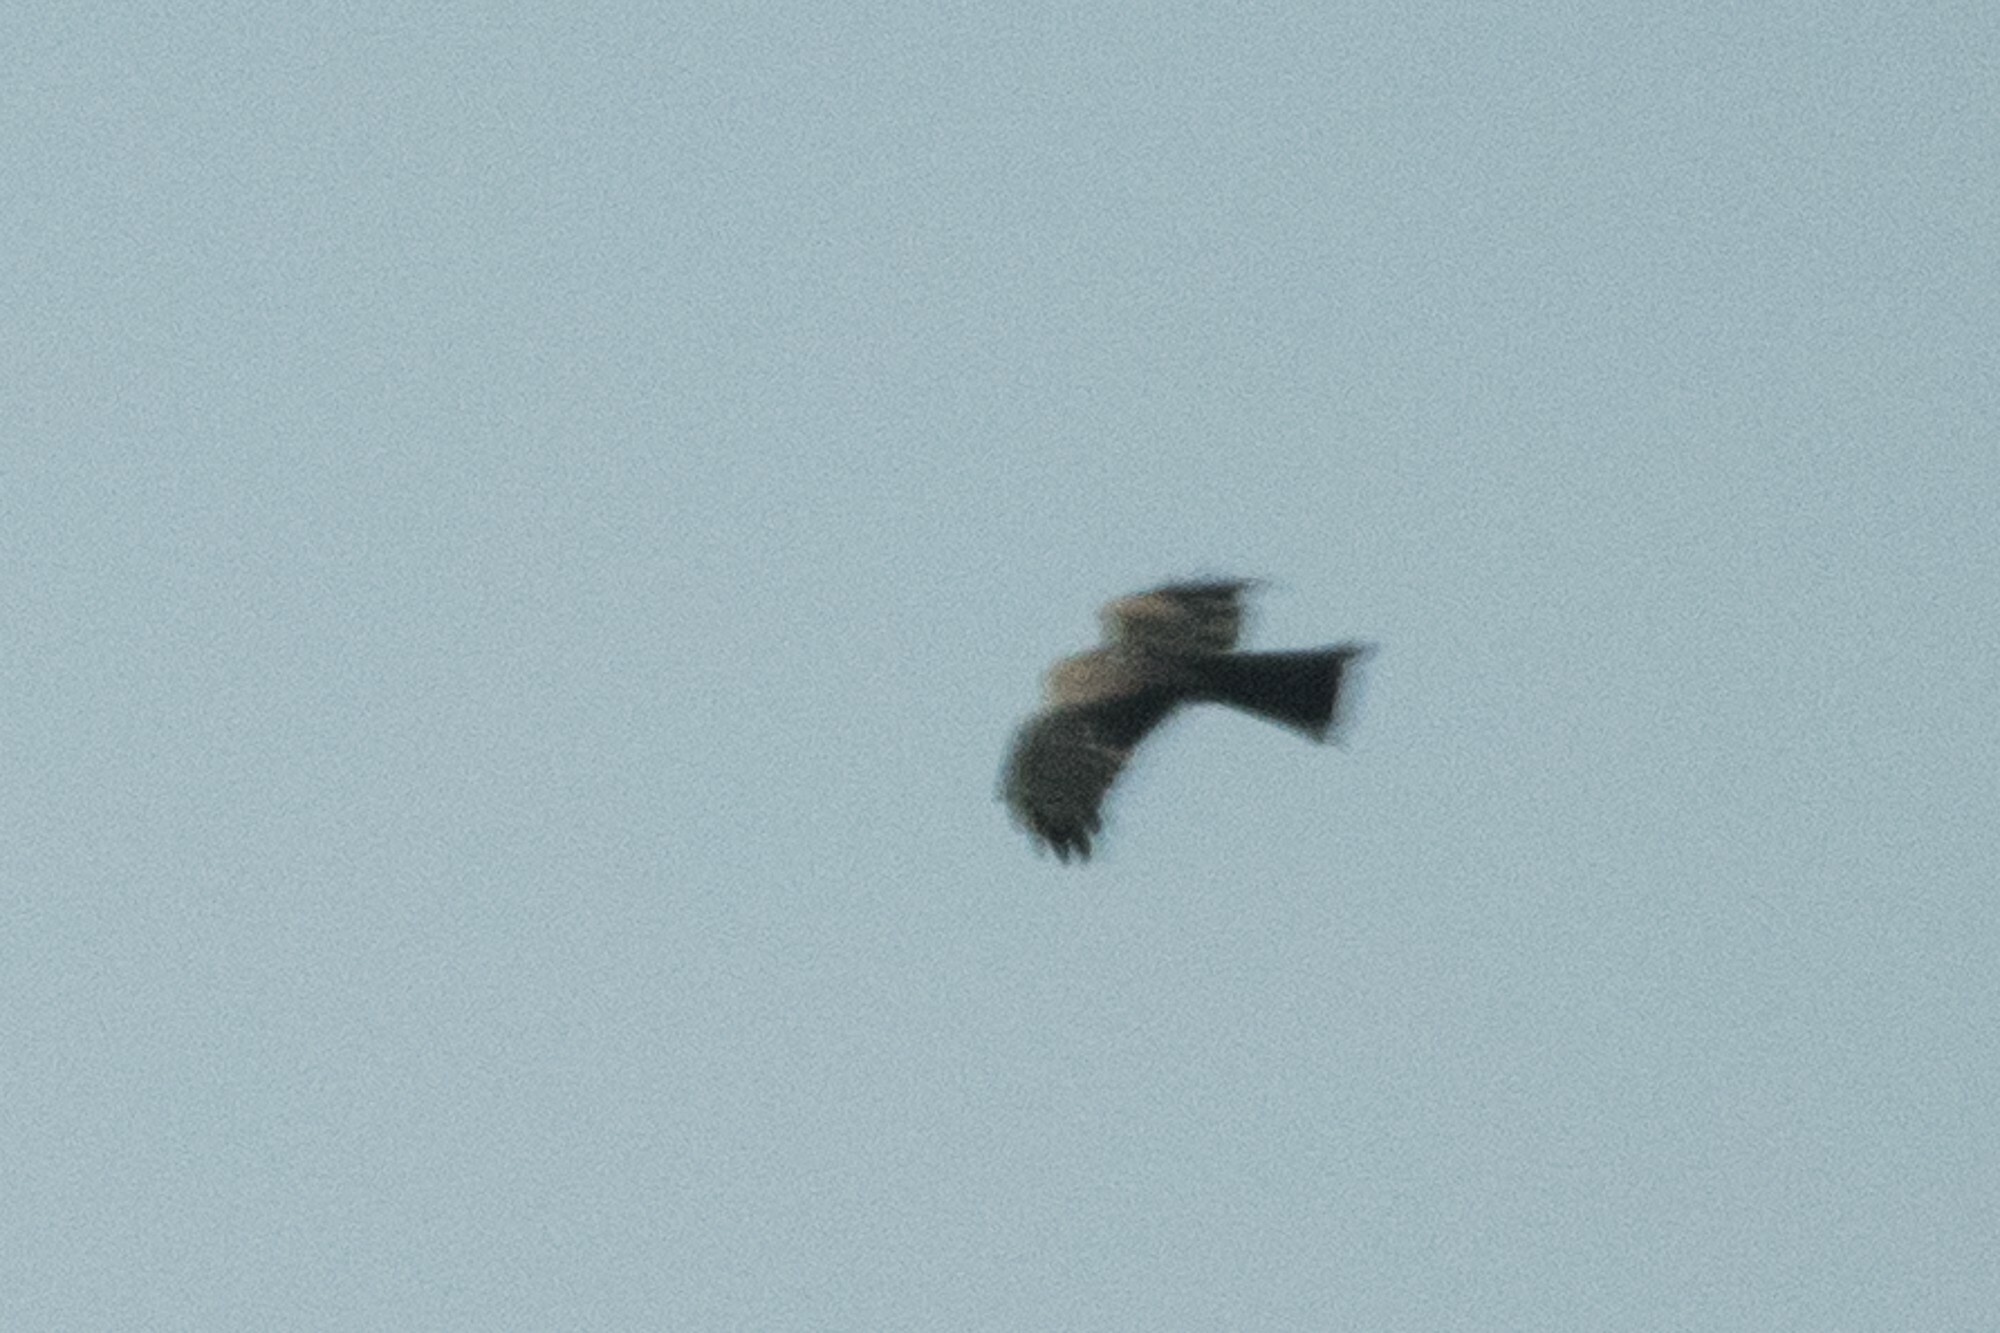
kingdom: Animalia
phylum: Chordata
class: Aves
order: Accipitriformes
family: Accipitridae
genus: Milvus
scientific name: Milvus migrans
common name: Black kite
